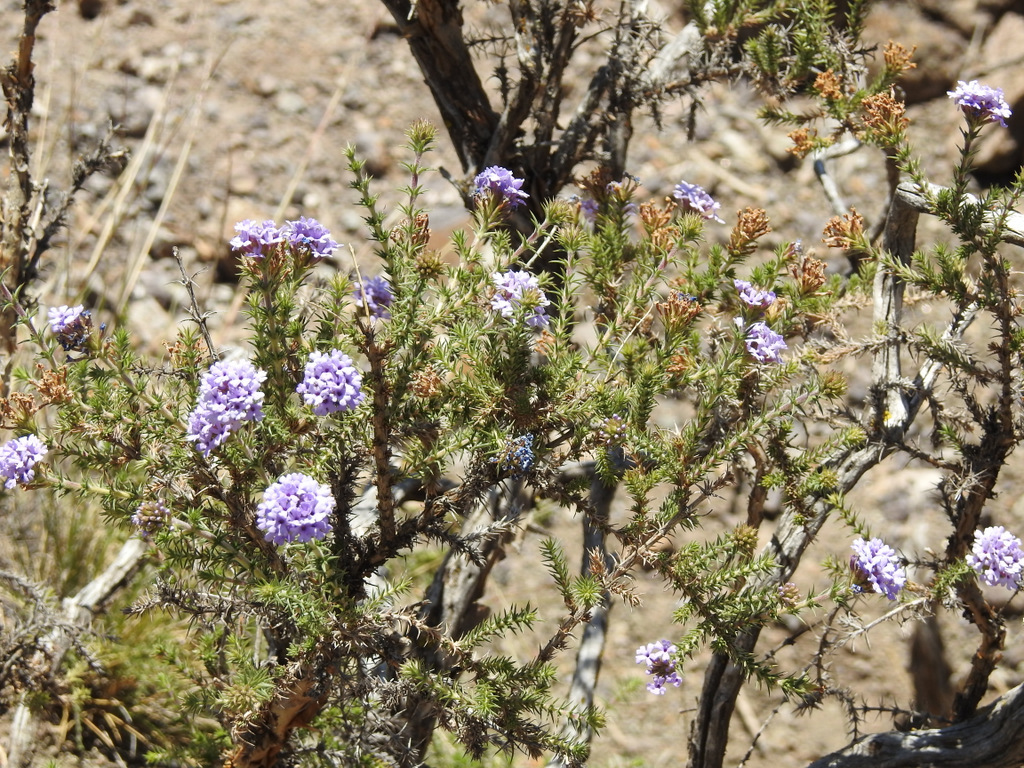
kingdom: Plantae
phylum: Tracheophyta
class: Magnoliopsida
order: Lamiales
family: Verbenaceae
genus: Junellia
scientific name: Junellia juniperina
